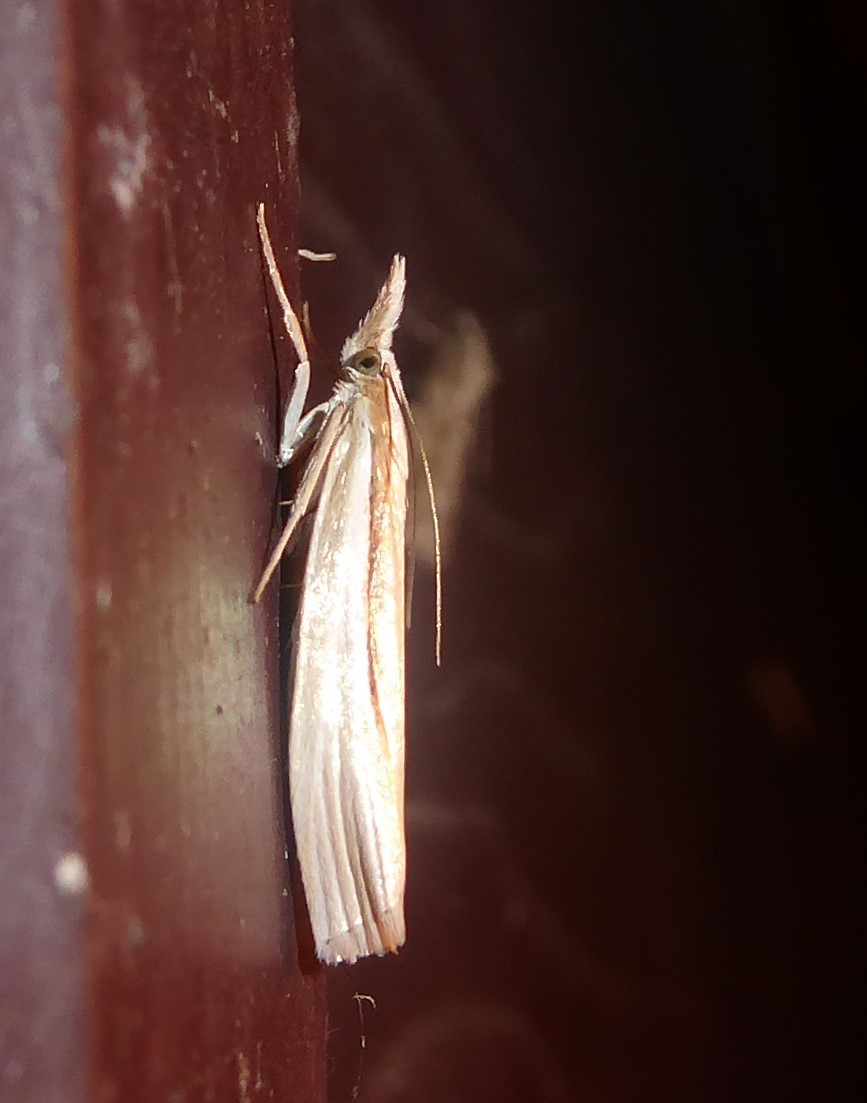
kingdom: Animalia
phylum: Arthropoda
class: Insecta
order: Lepidoptera
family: Crambidae
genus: Orocrambus
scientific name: Orocrambus ramosellus
